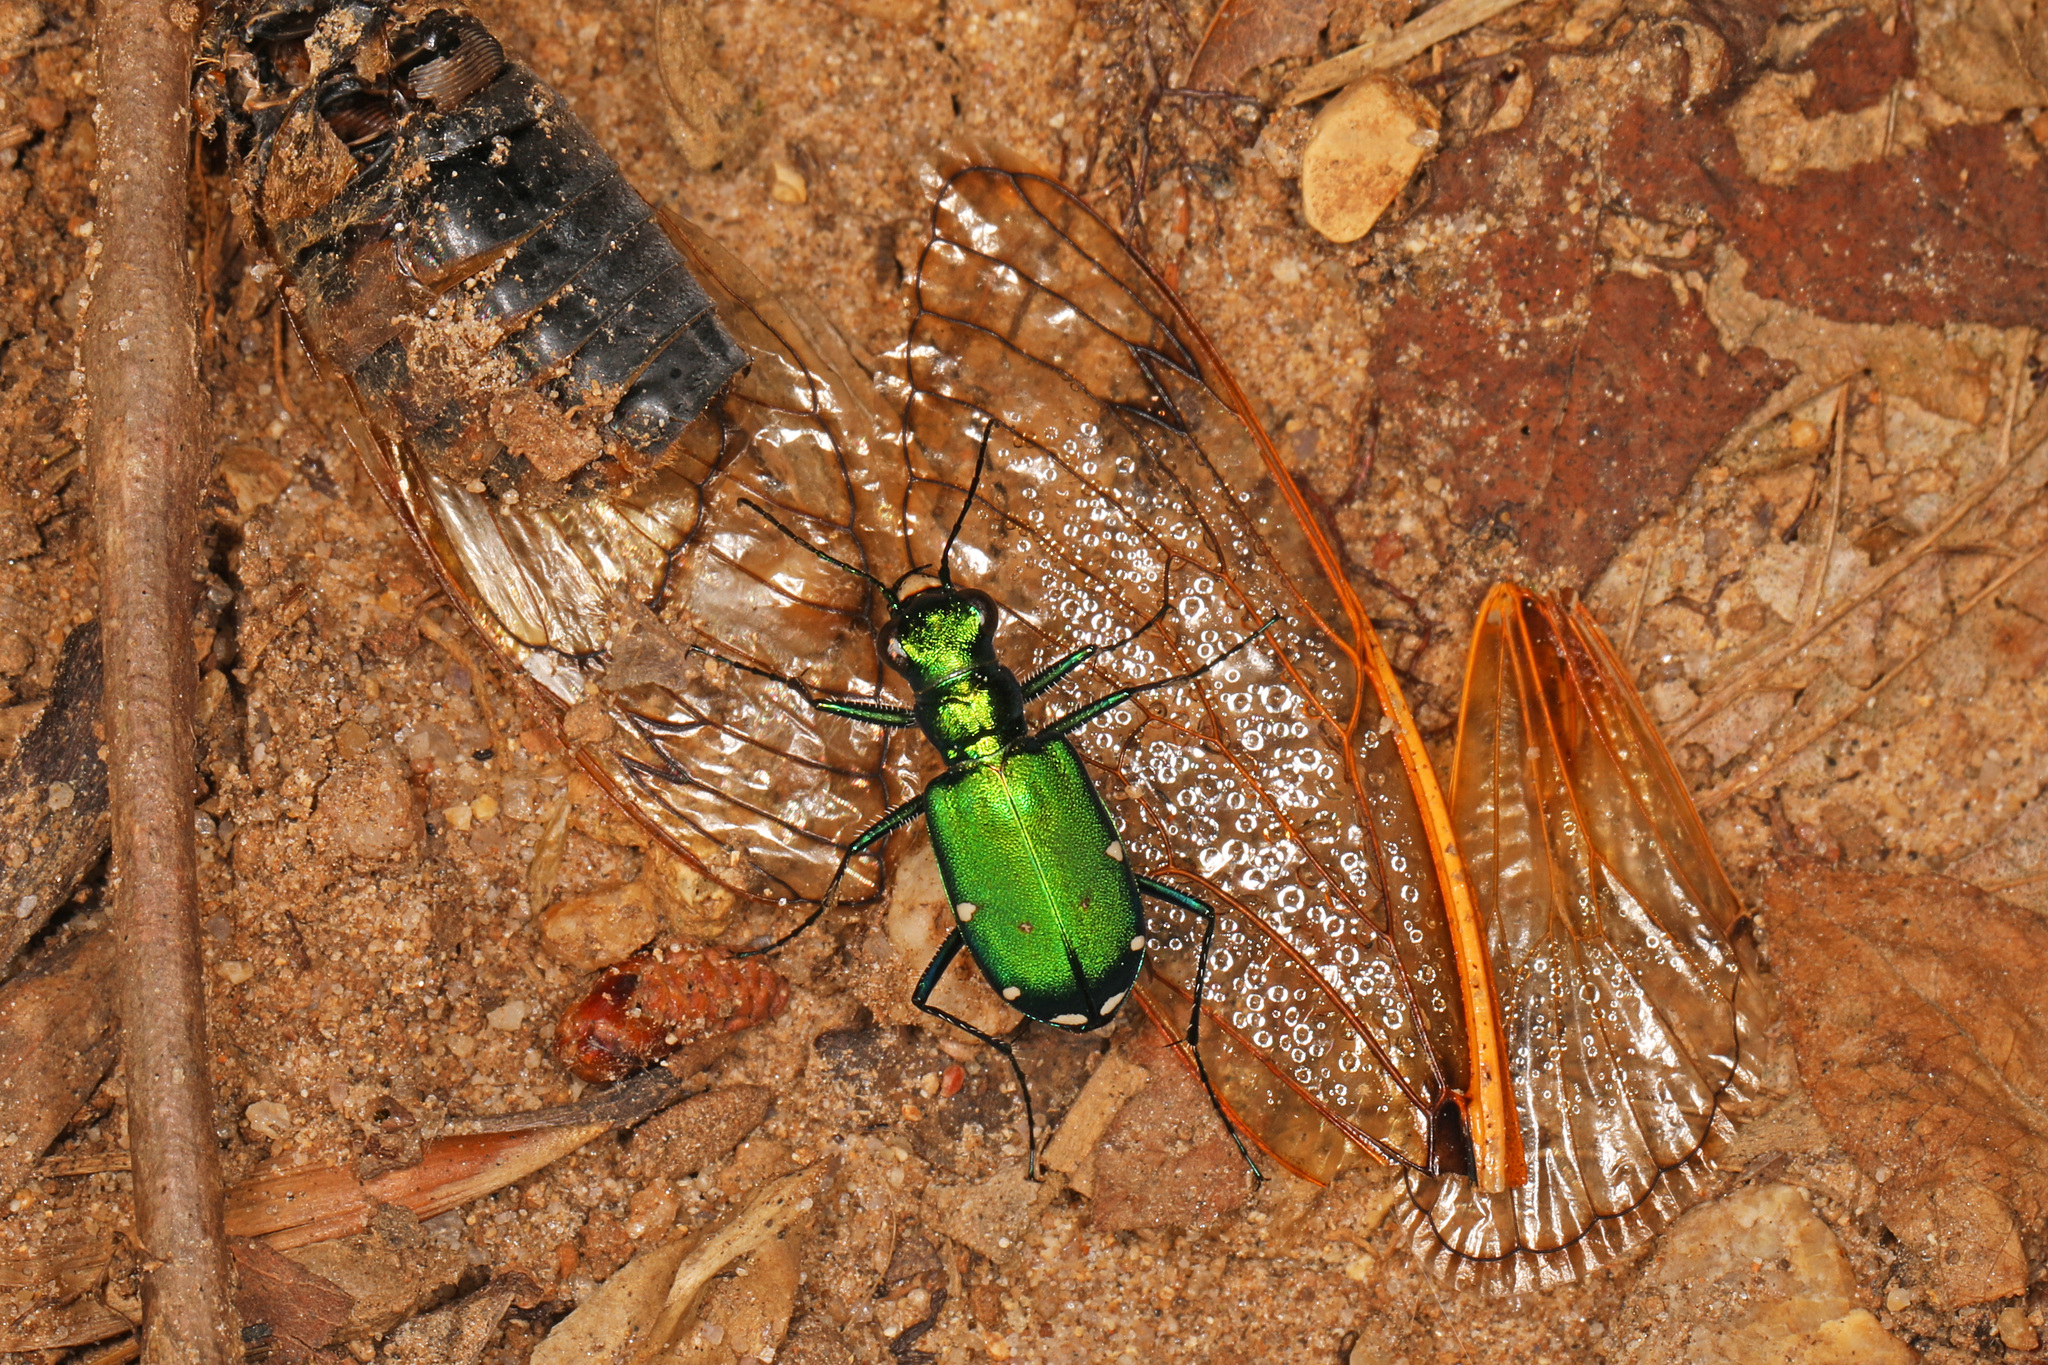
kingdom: Animalia
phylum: Arthropoda
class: Insecta
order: Coleoptera
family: Carabidae
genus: Cicindela
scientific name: Cicindela sexguttata
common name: Six-spotted tiger beetle
